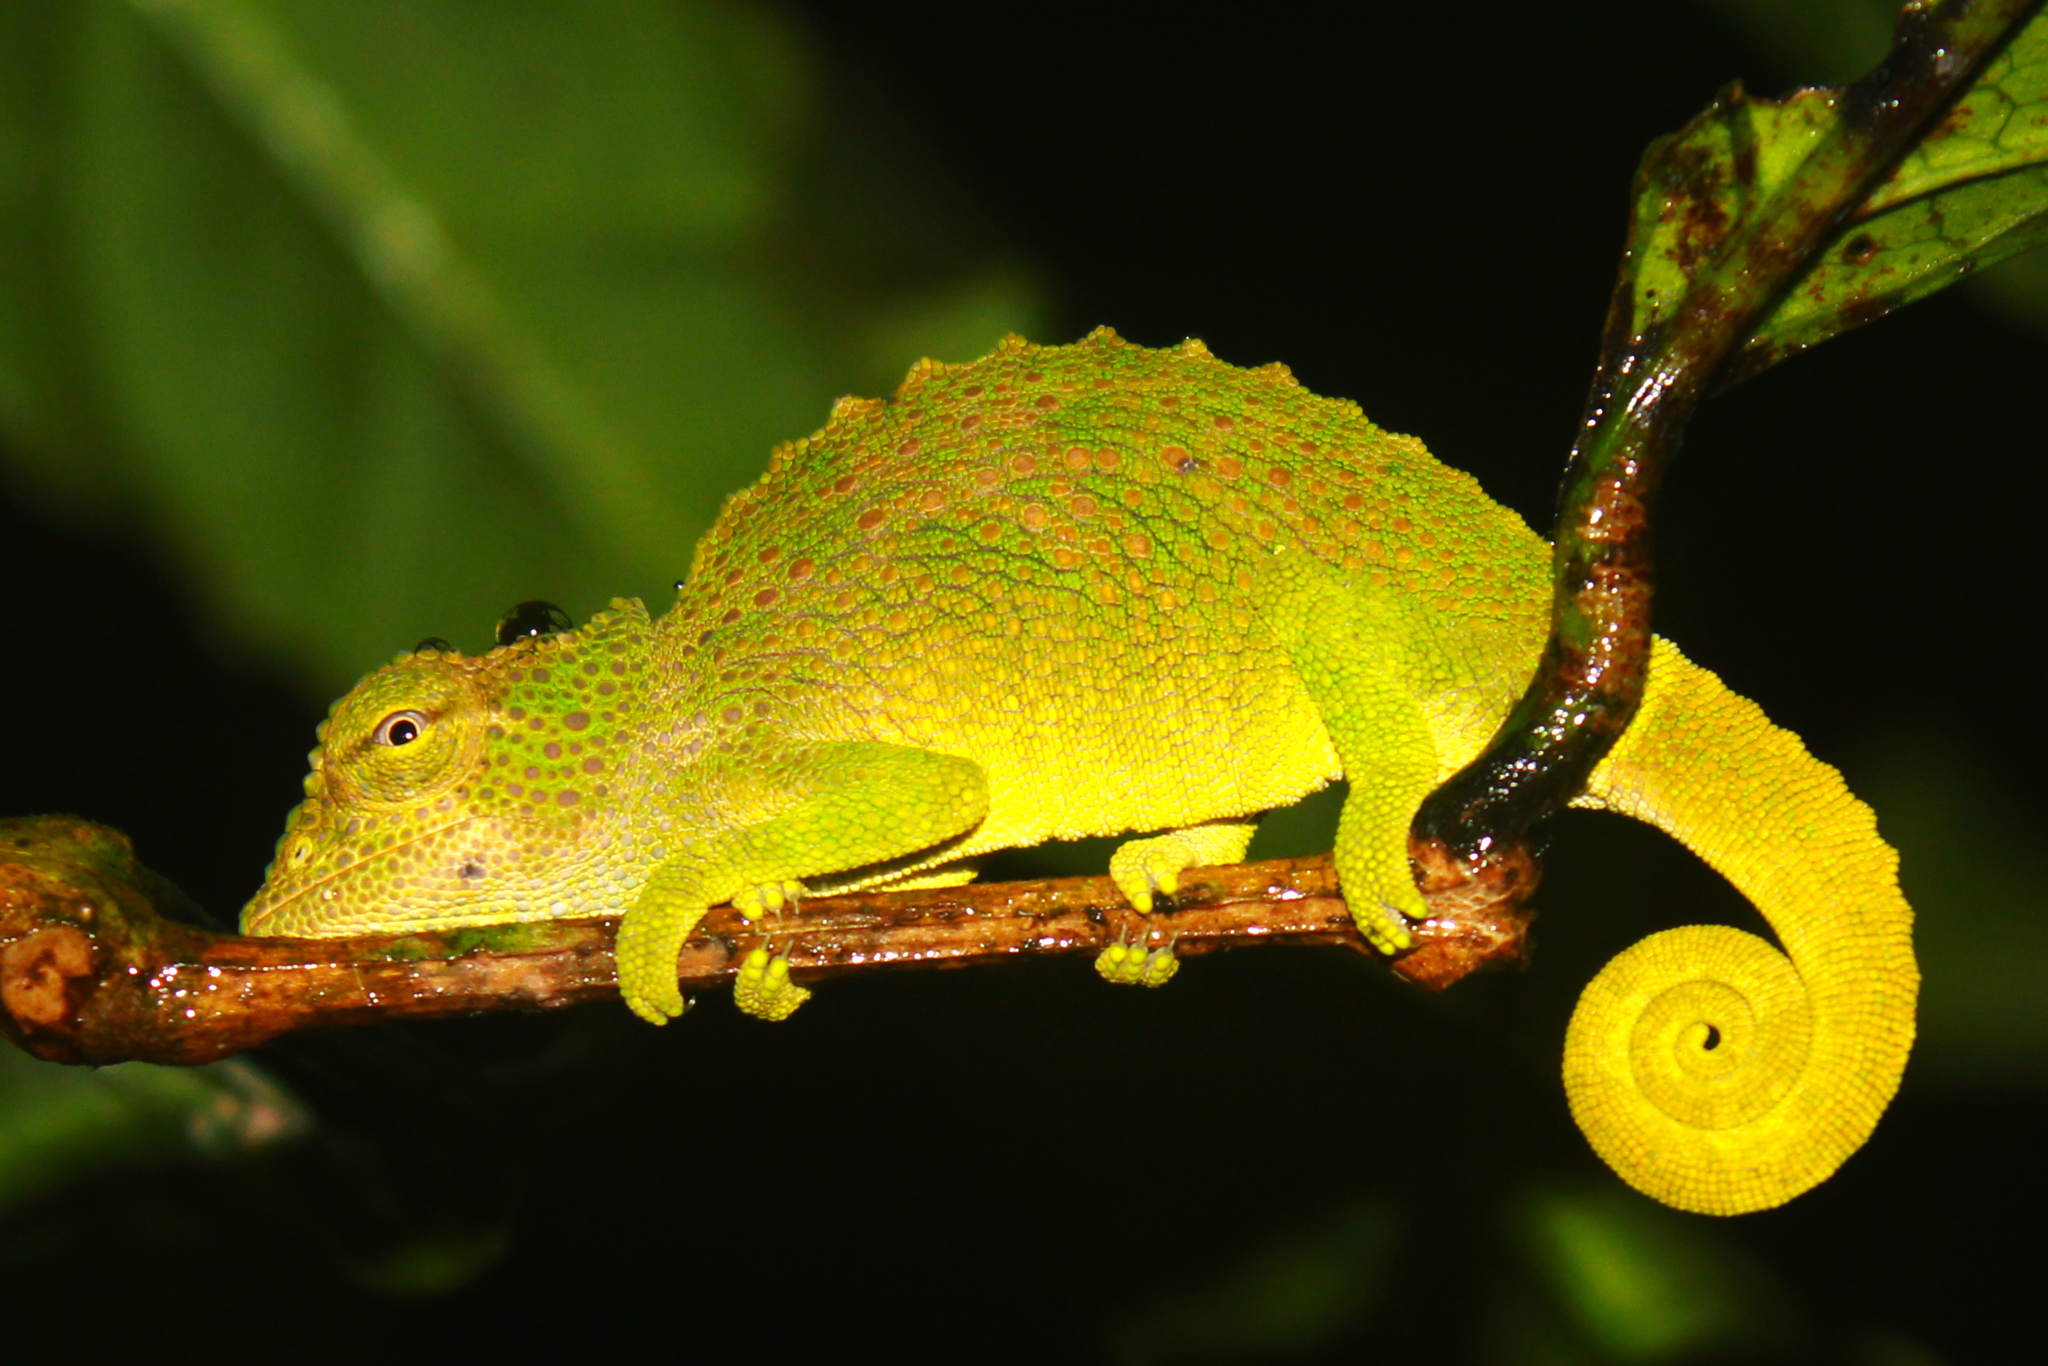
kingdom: Animalia
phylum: Chordata
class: Squamata
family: Chamaeleonidae
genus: Trioceros
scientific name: Trioceros feae
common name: Bioko montane chameleon
